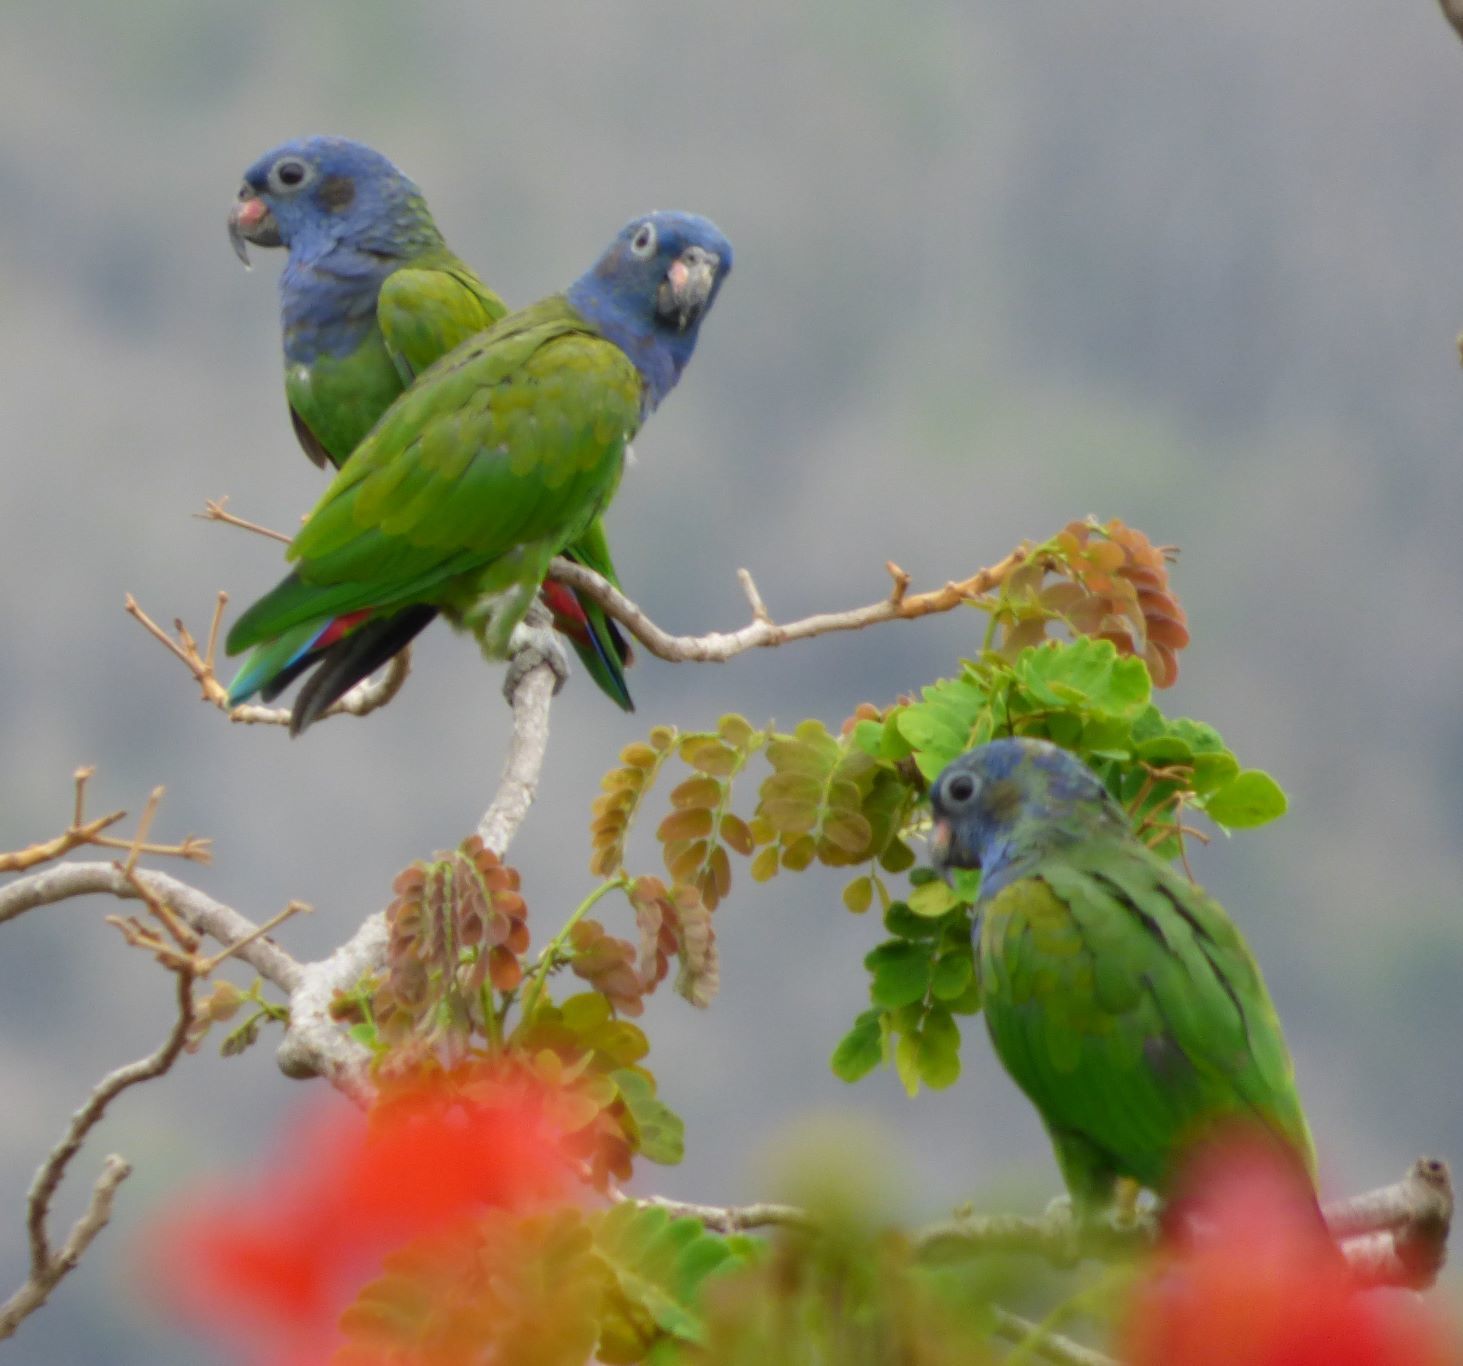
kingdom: Animalia
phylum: Chordata
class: Aves
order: Psittaciformes
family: Psittacidae
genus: Pionus
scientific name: Pionus menstruus
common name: Blue-headed parrot
